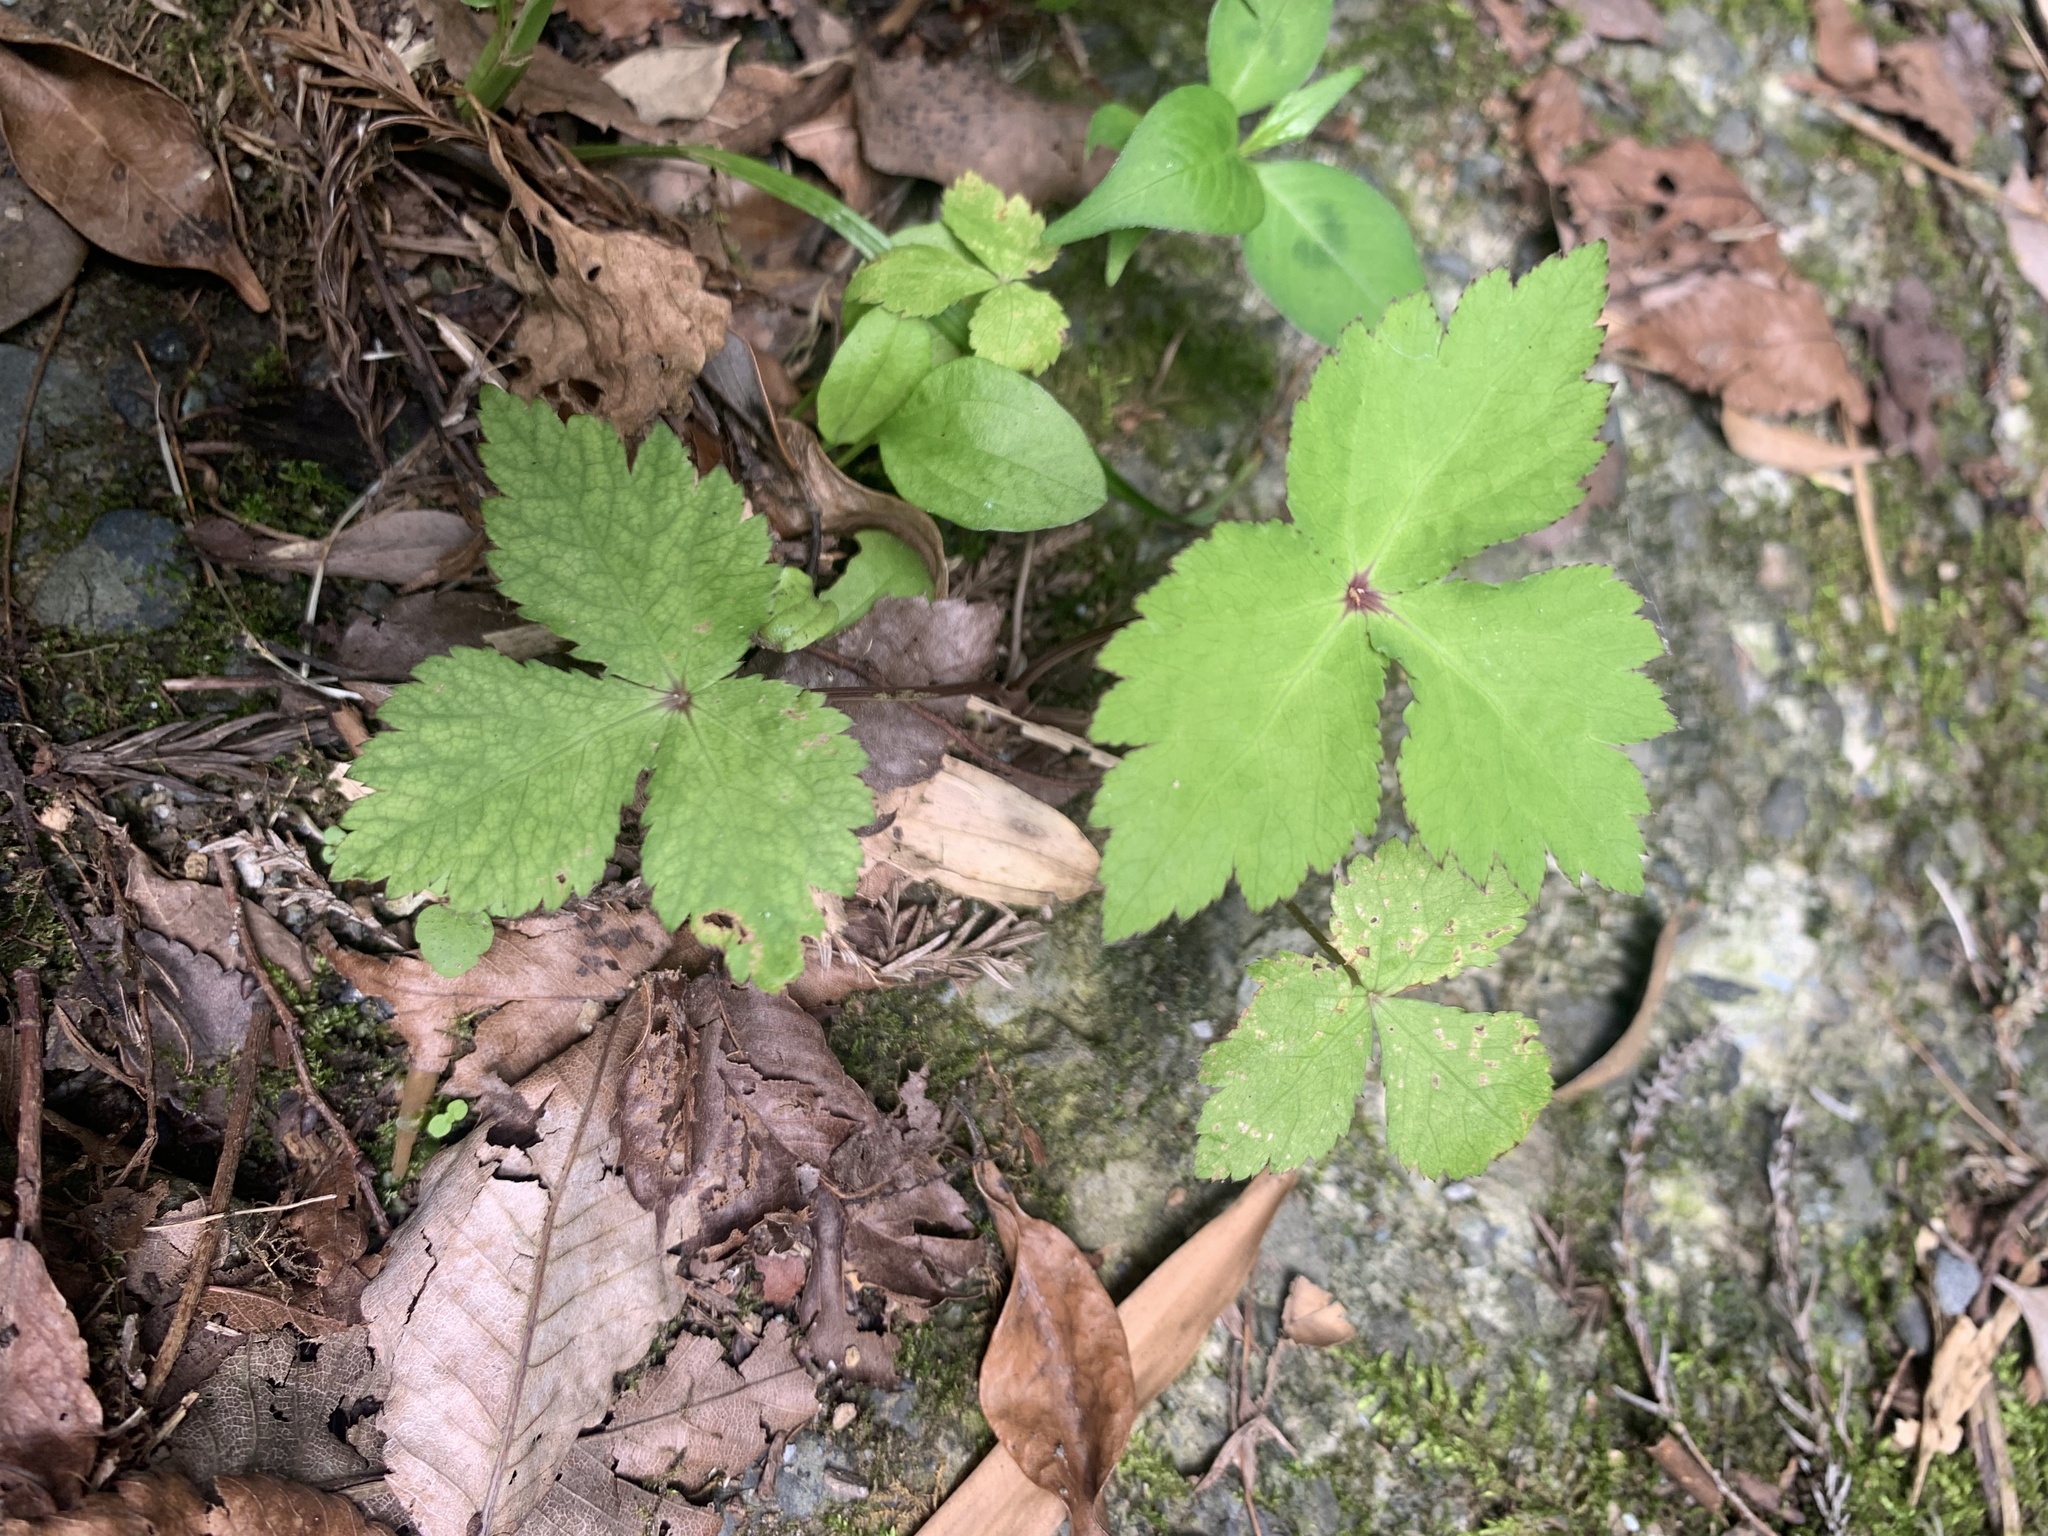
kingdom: Plantae
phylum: Tracheophyta
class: Magnoliopsida
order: Apiales
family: Apiaceae
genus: Cryptotaenia
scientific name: Cryptotaenia japonica
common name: Japanese cryptotaenia
